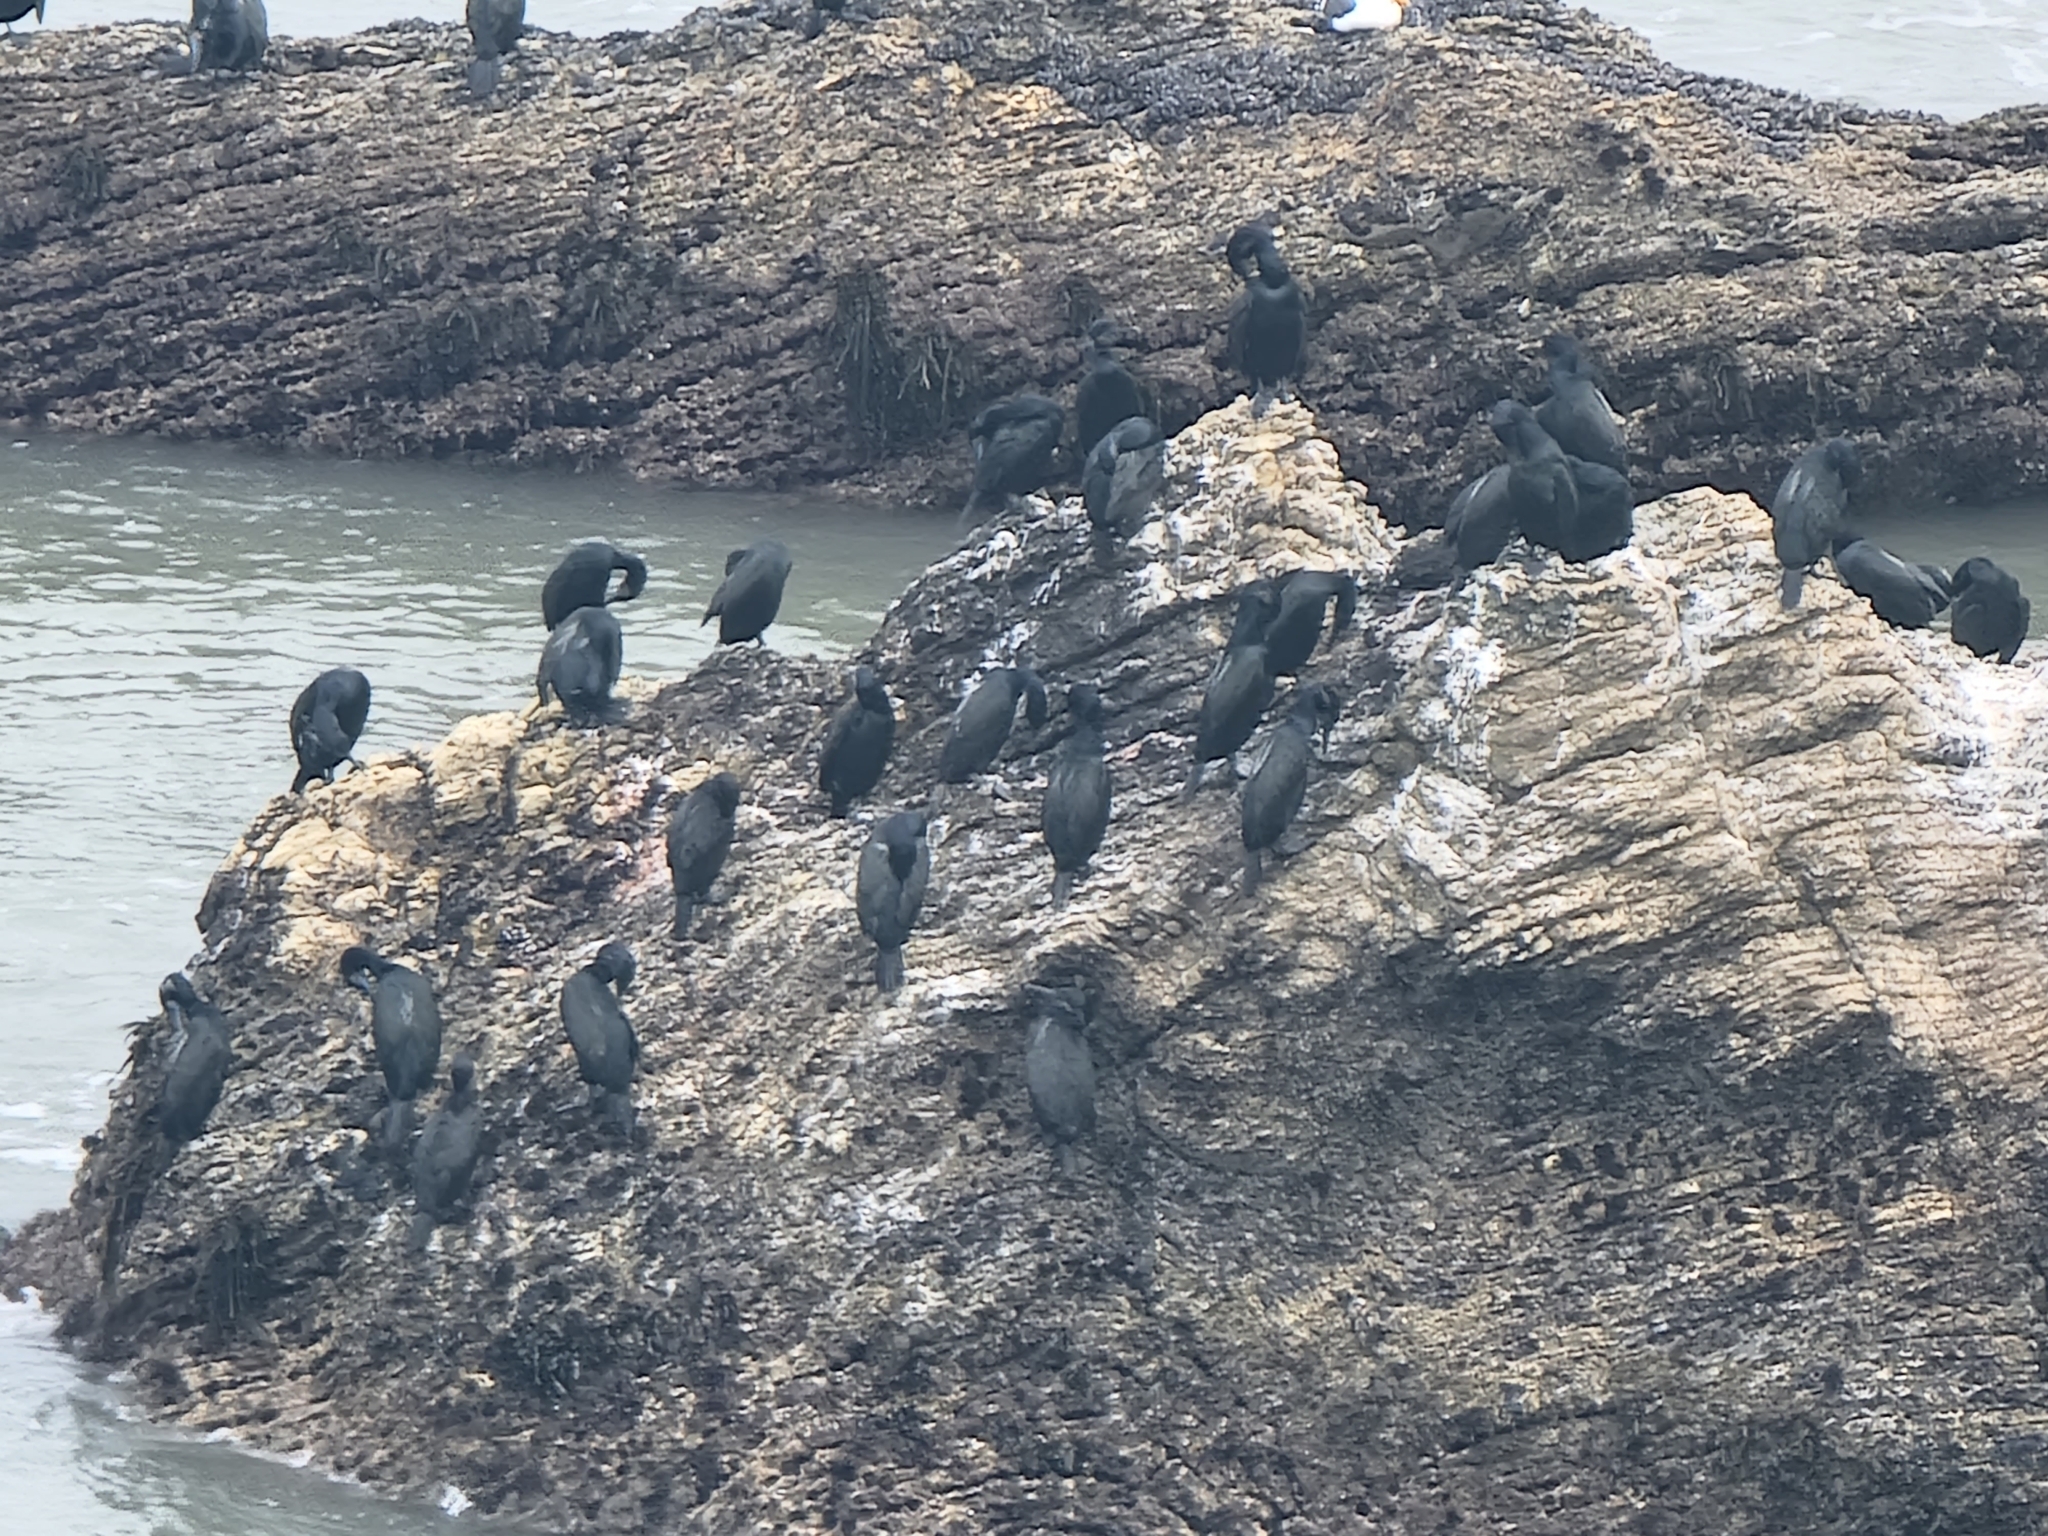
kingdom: Animalia
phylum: Chordata
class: Aves
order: Suliformes
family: Phalacrocoracidae
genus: Urile
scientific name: Urile penicillatus
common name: Brandt's cormorant
